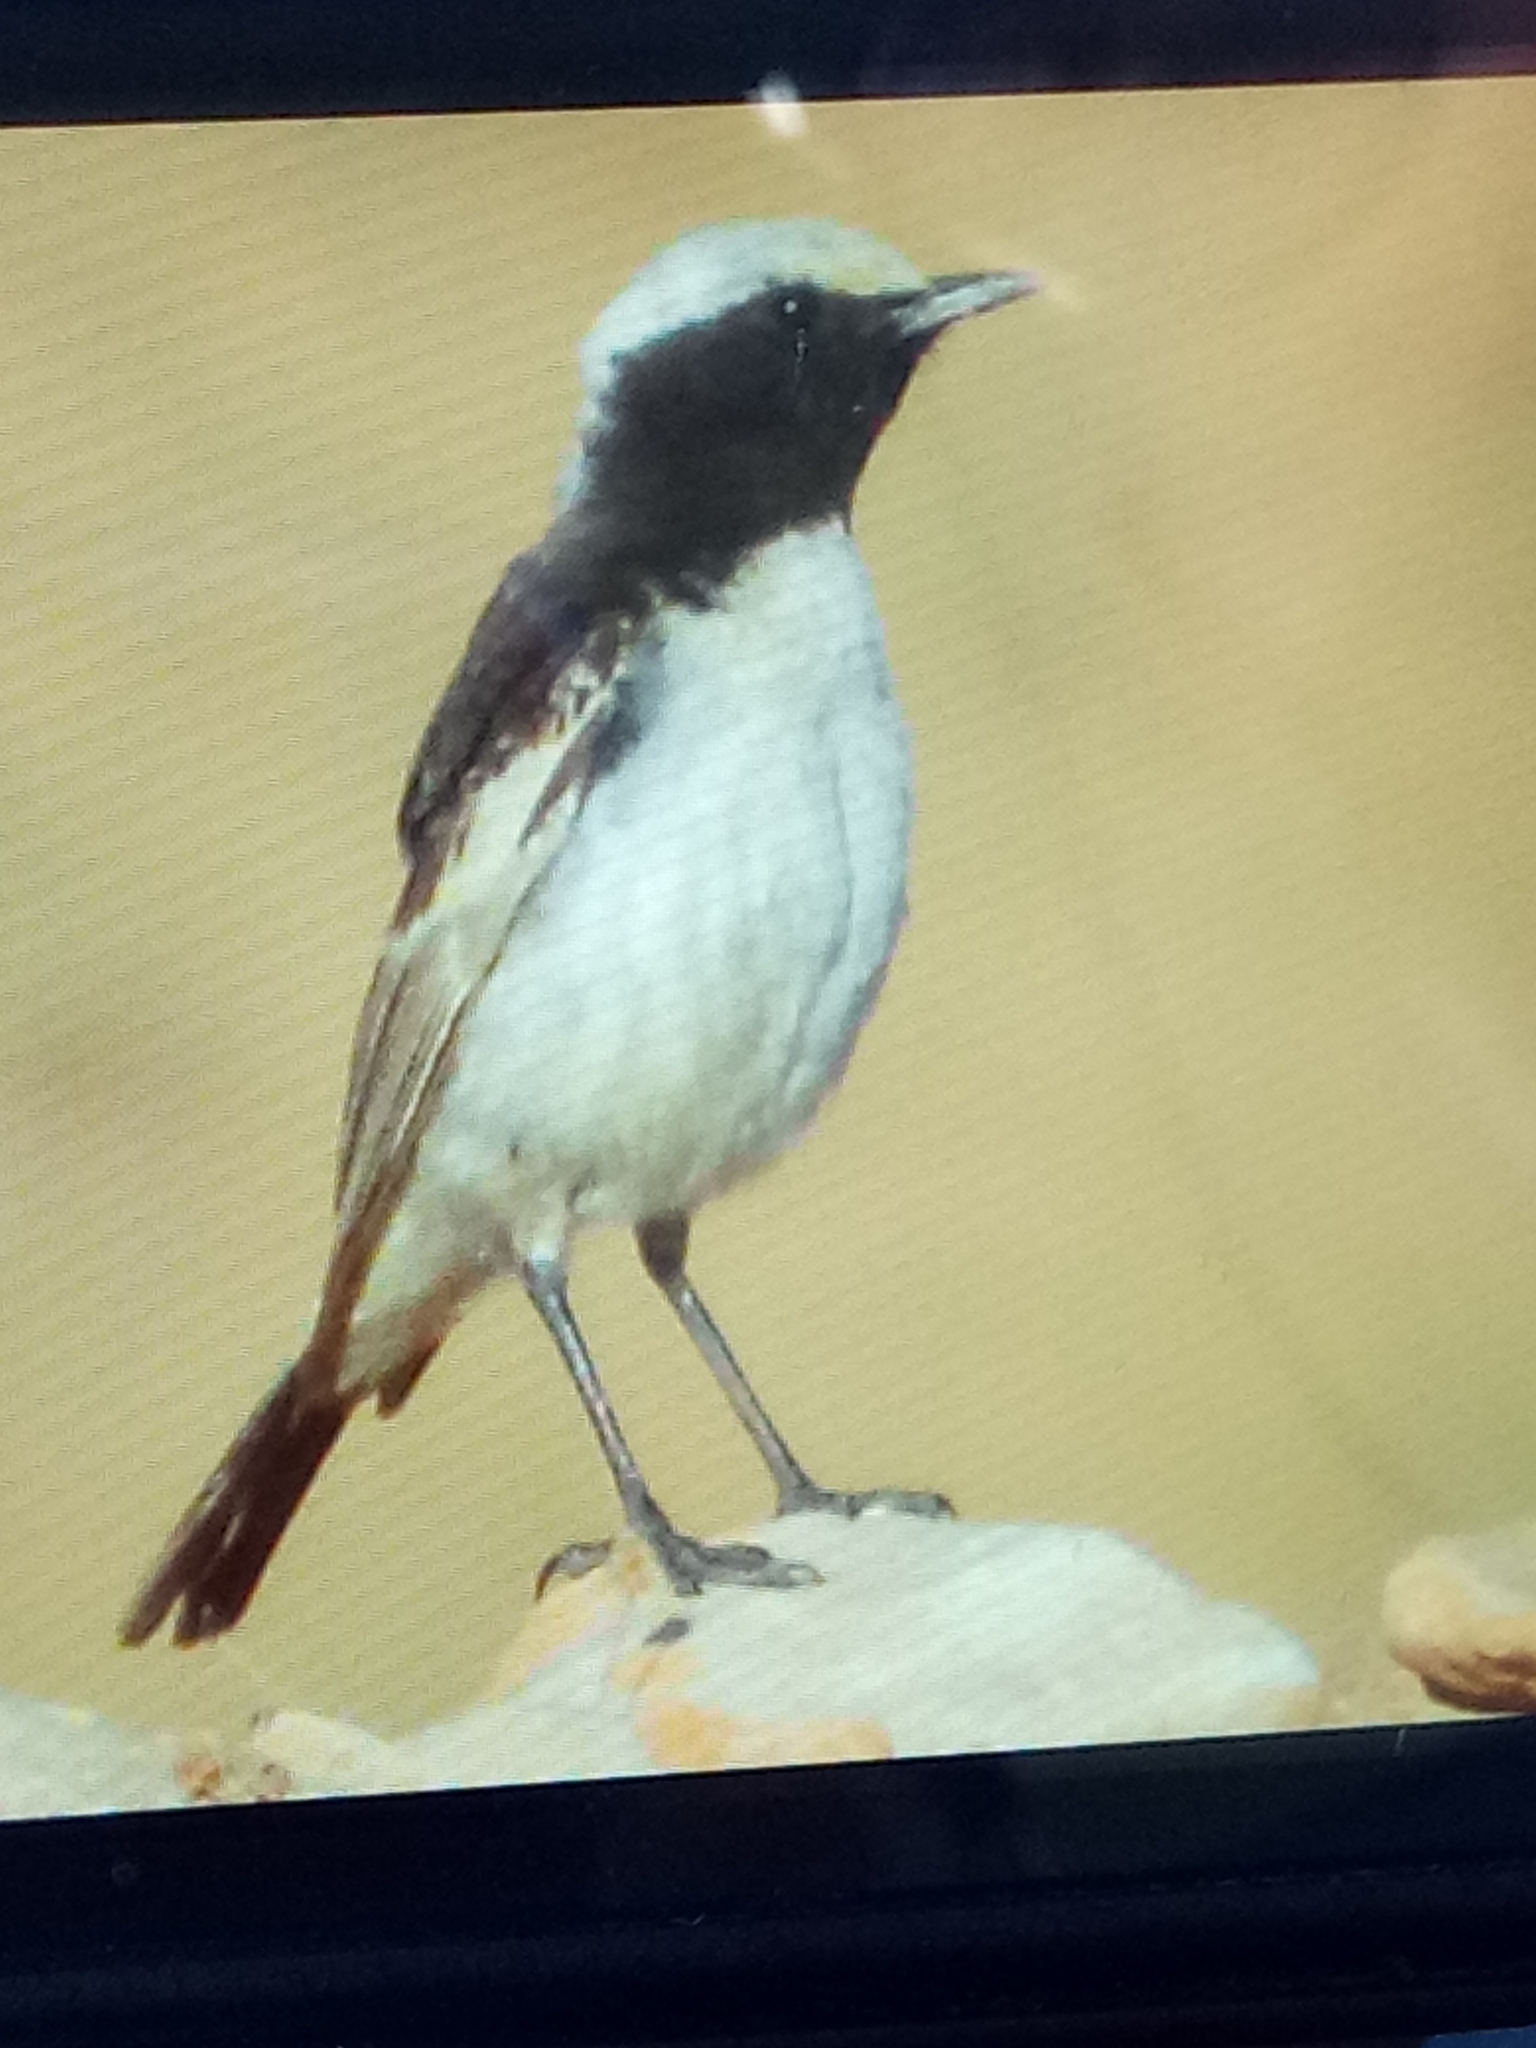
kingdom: Animalia
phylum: Chordata
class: Aves
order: Passeriformes
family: Muscicapidae
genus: Oenanthe
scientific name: Oenanthe moesta
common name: Red-rumped wheatear
